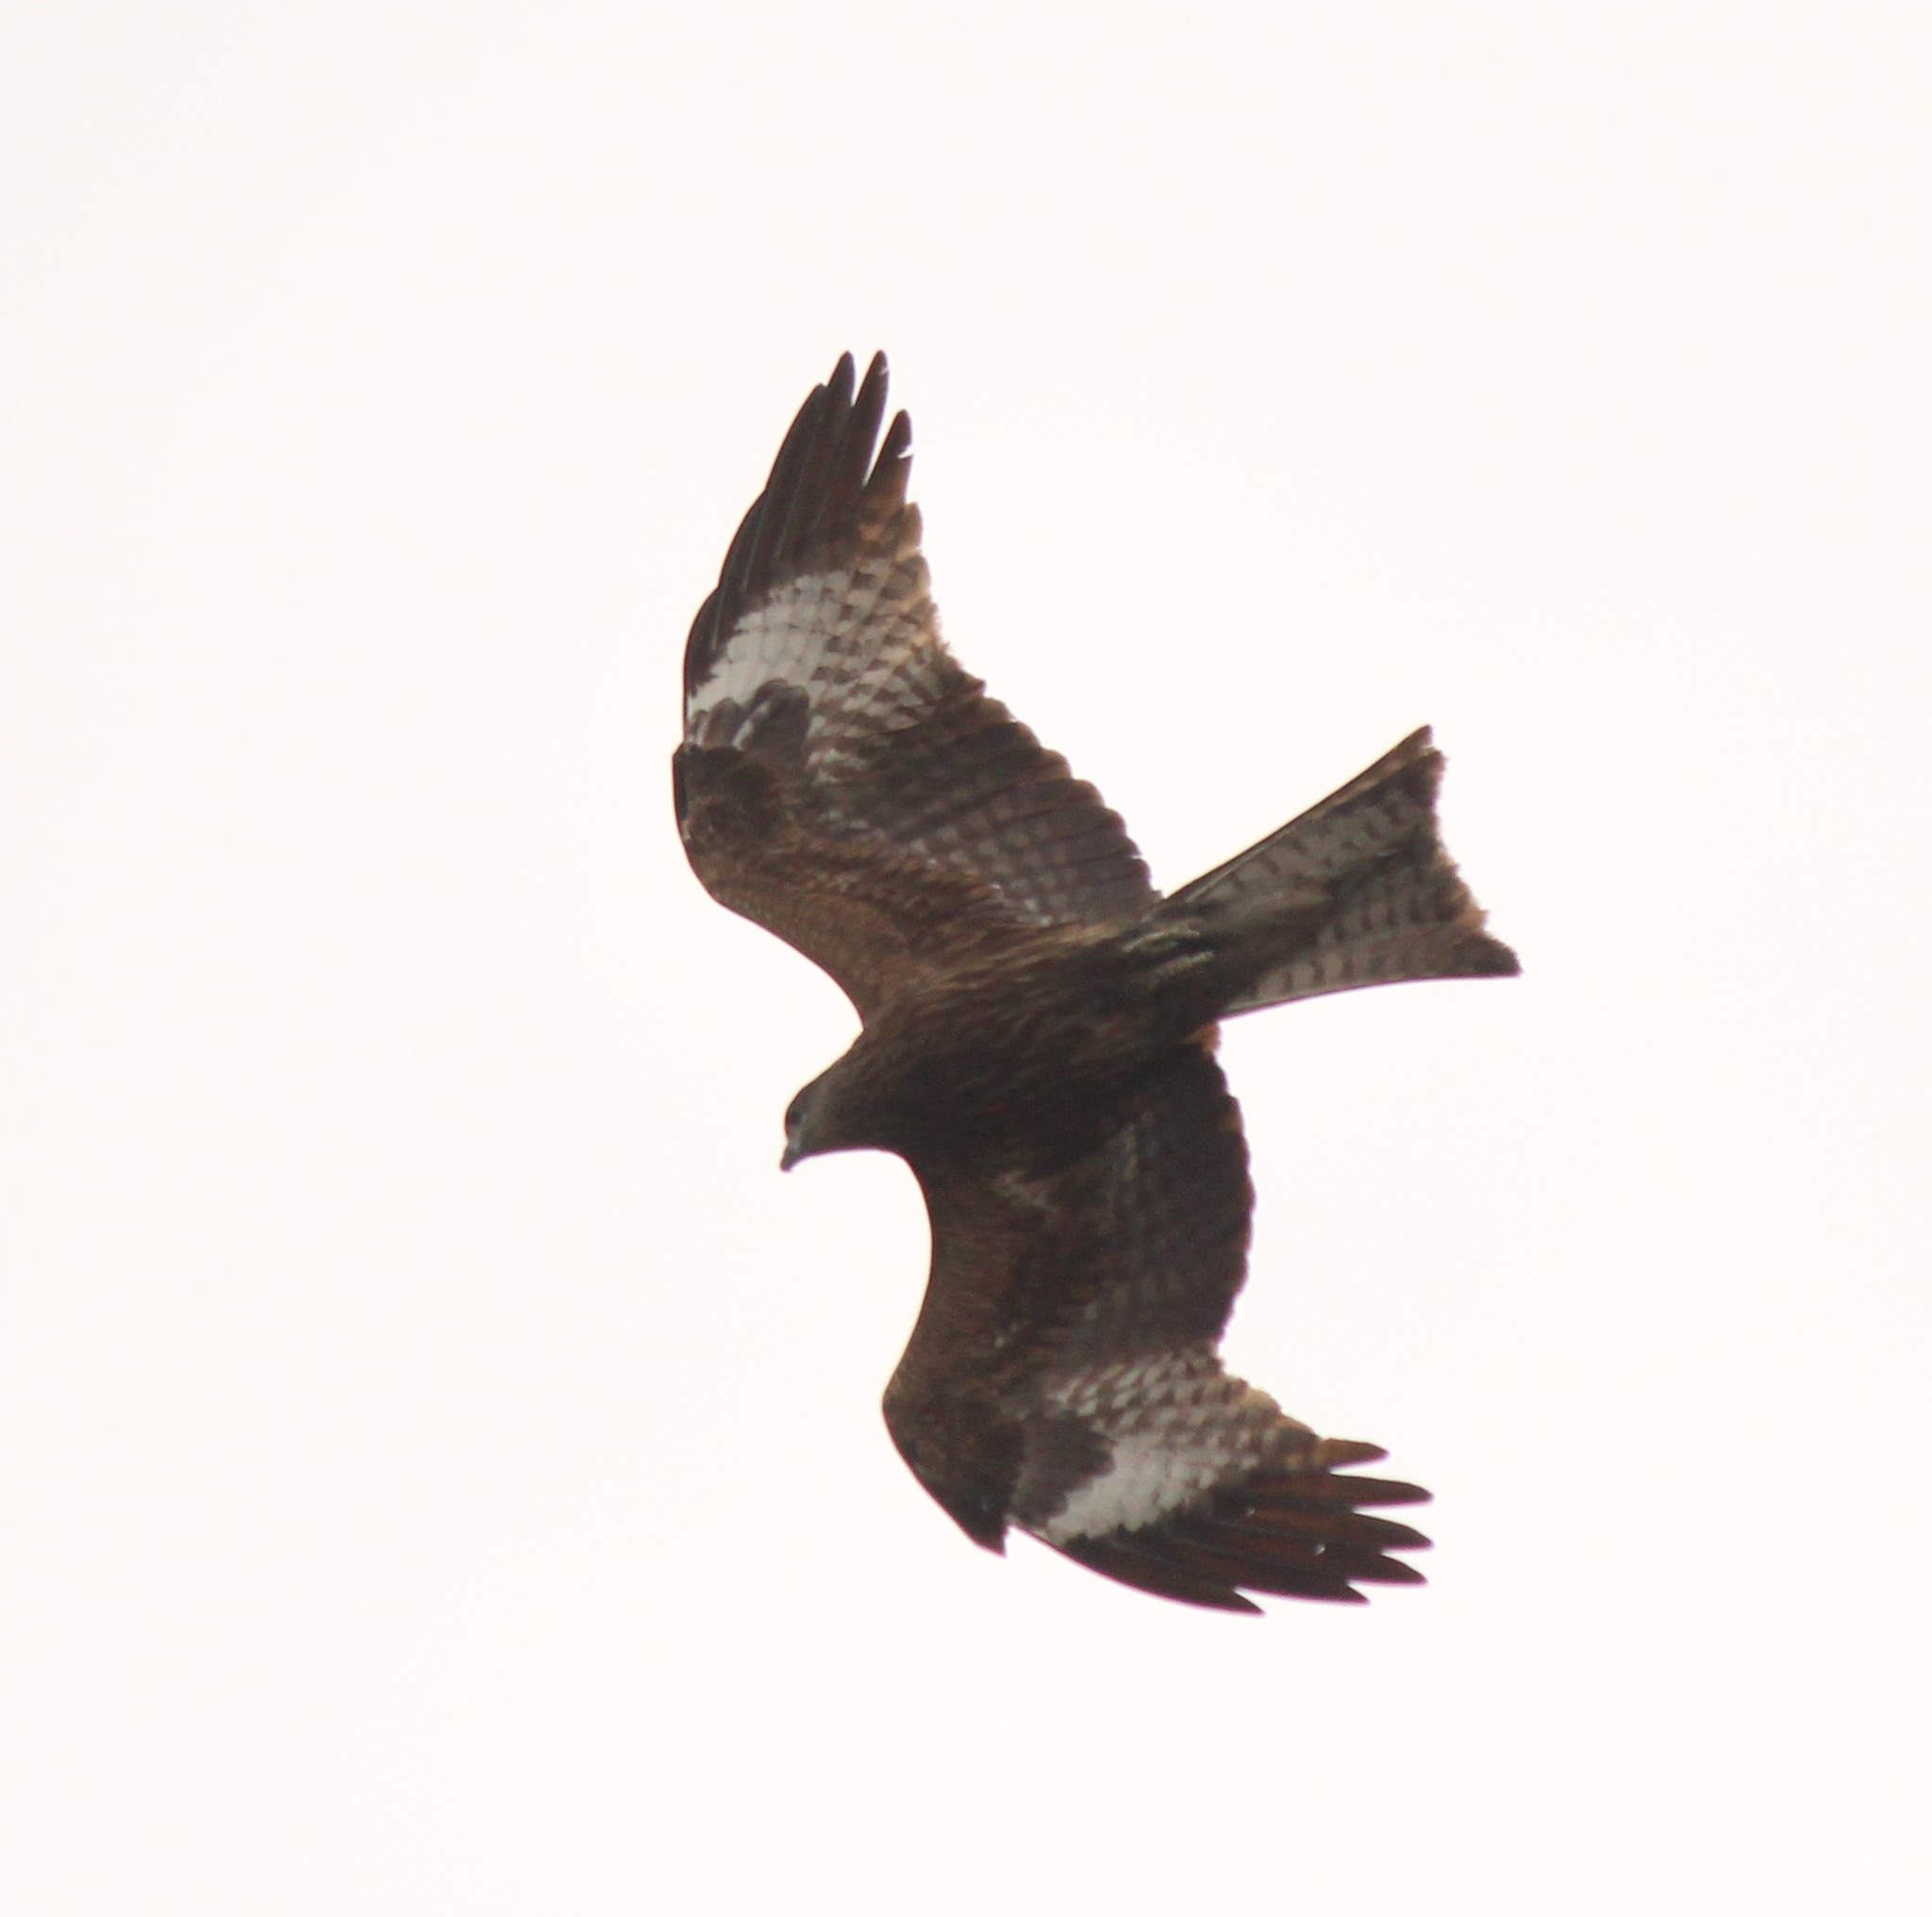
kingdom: Animalia
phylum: Chordata
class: Aves
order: Accipitriformes
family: Accipitridae
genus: Milvus
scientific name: Milvus migrans
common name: Black kite
